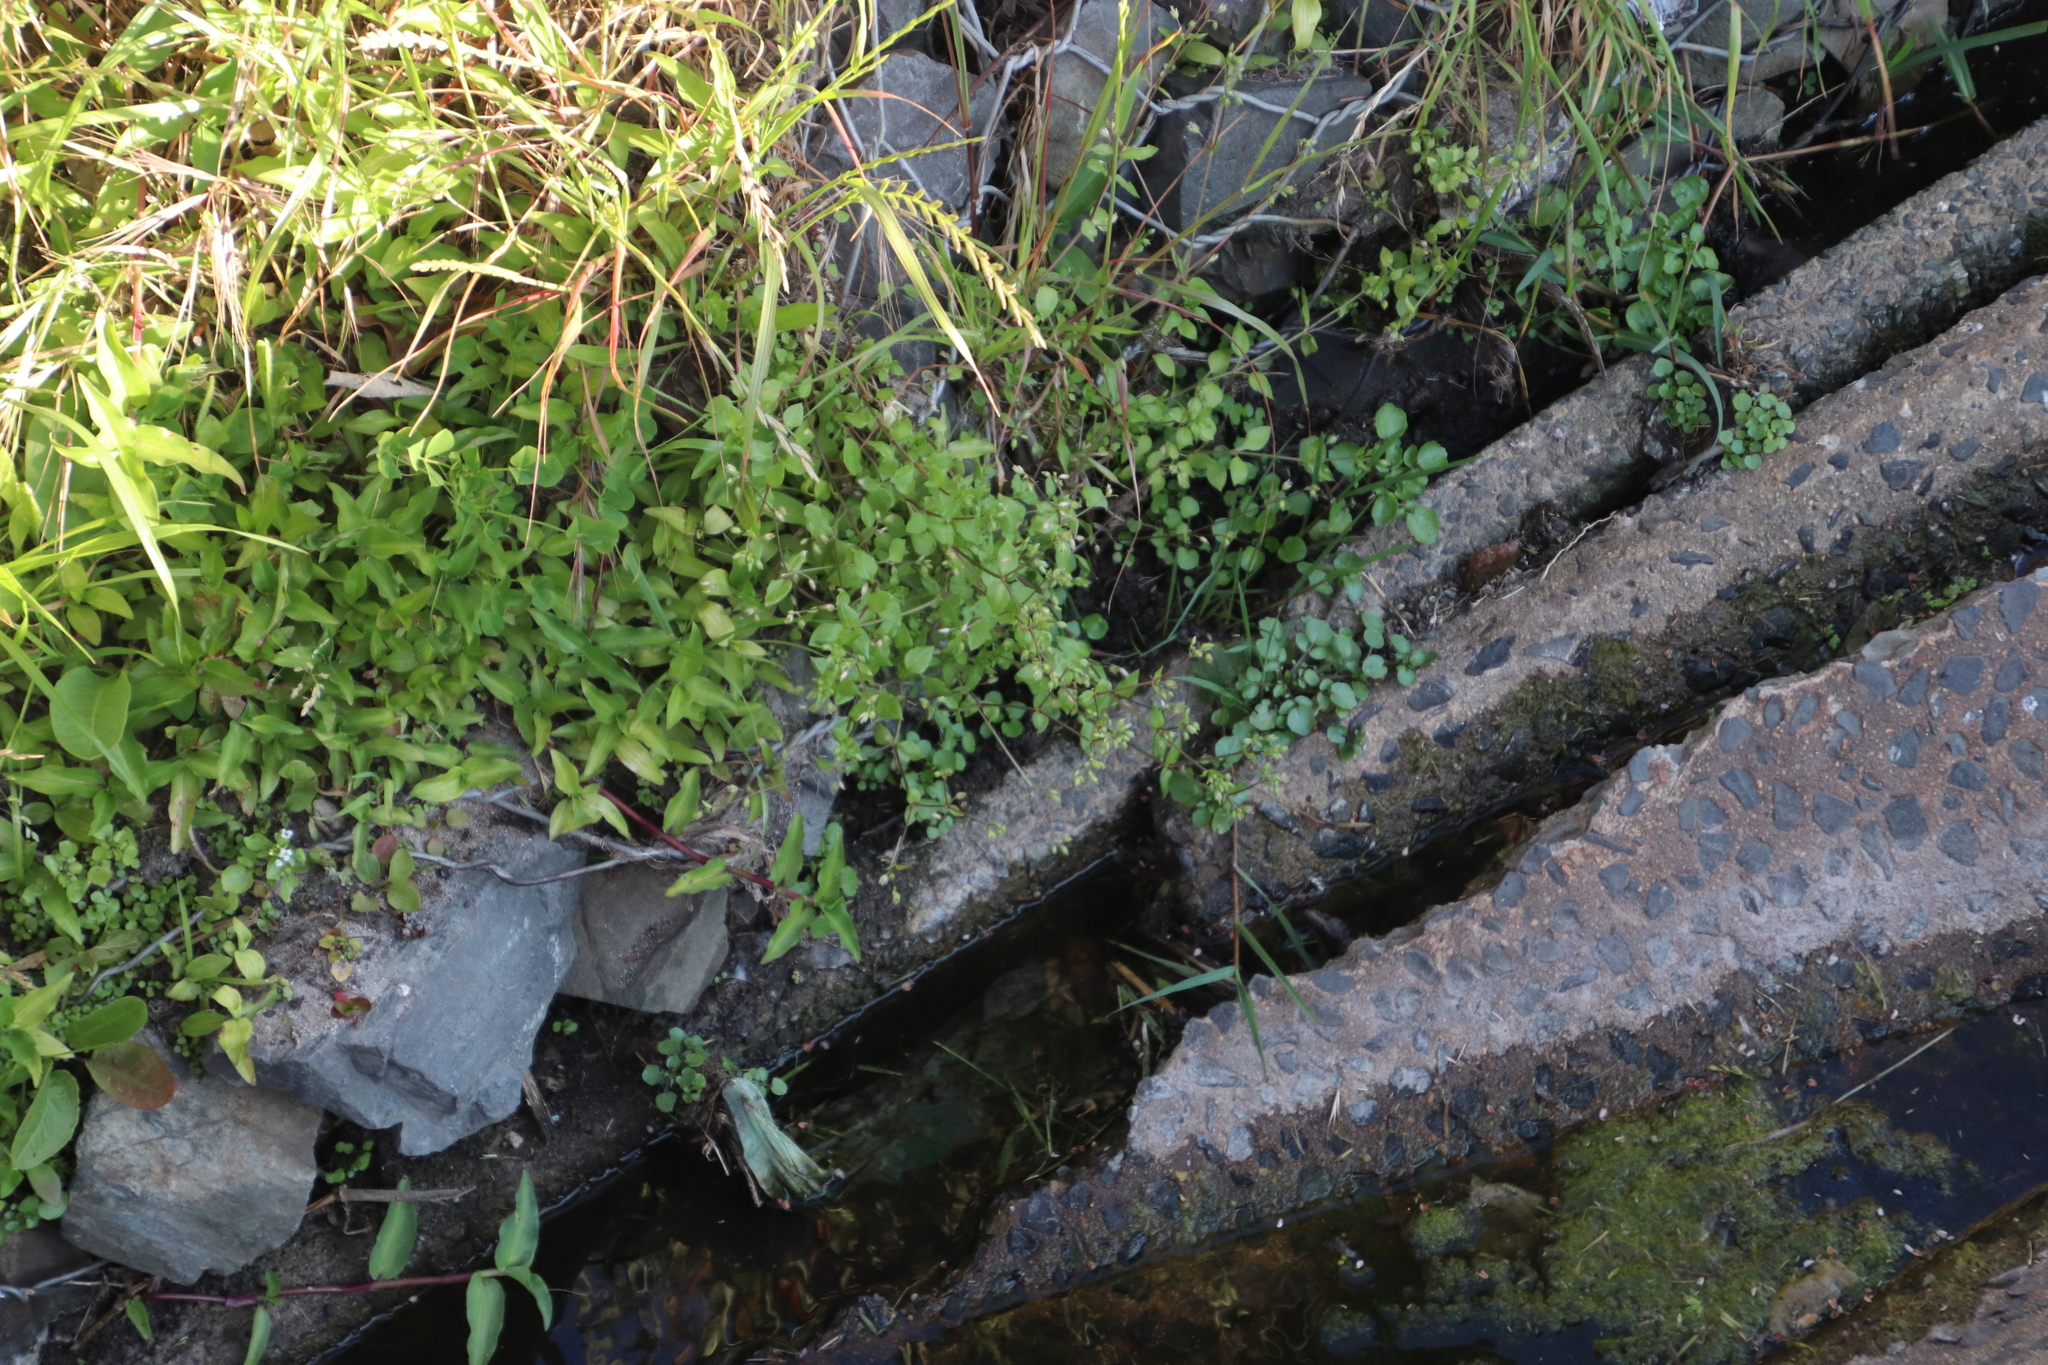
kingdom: Plantae
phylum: Tracheophyta
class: Magnoliopsida
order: Caryophyllales
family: Caryophyllaceae
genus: Stellaria
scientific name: Stellaria media
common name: Common chickweed
